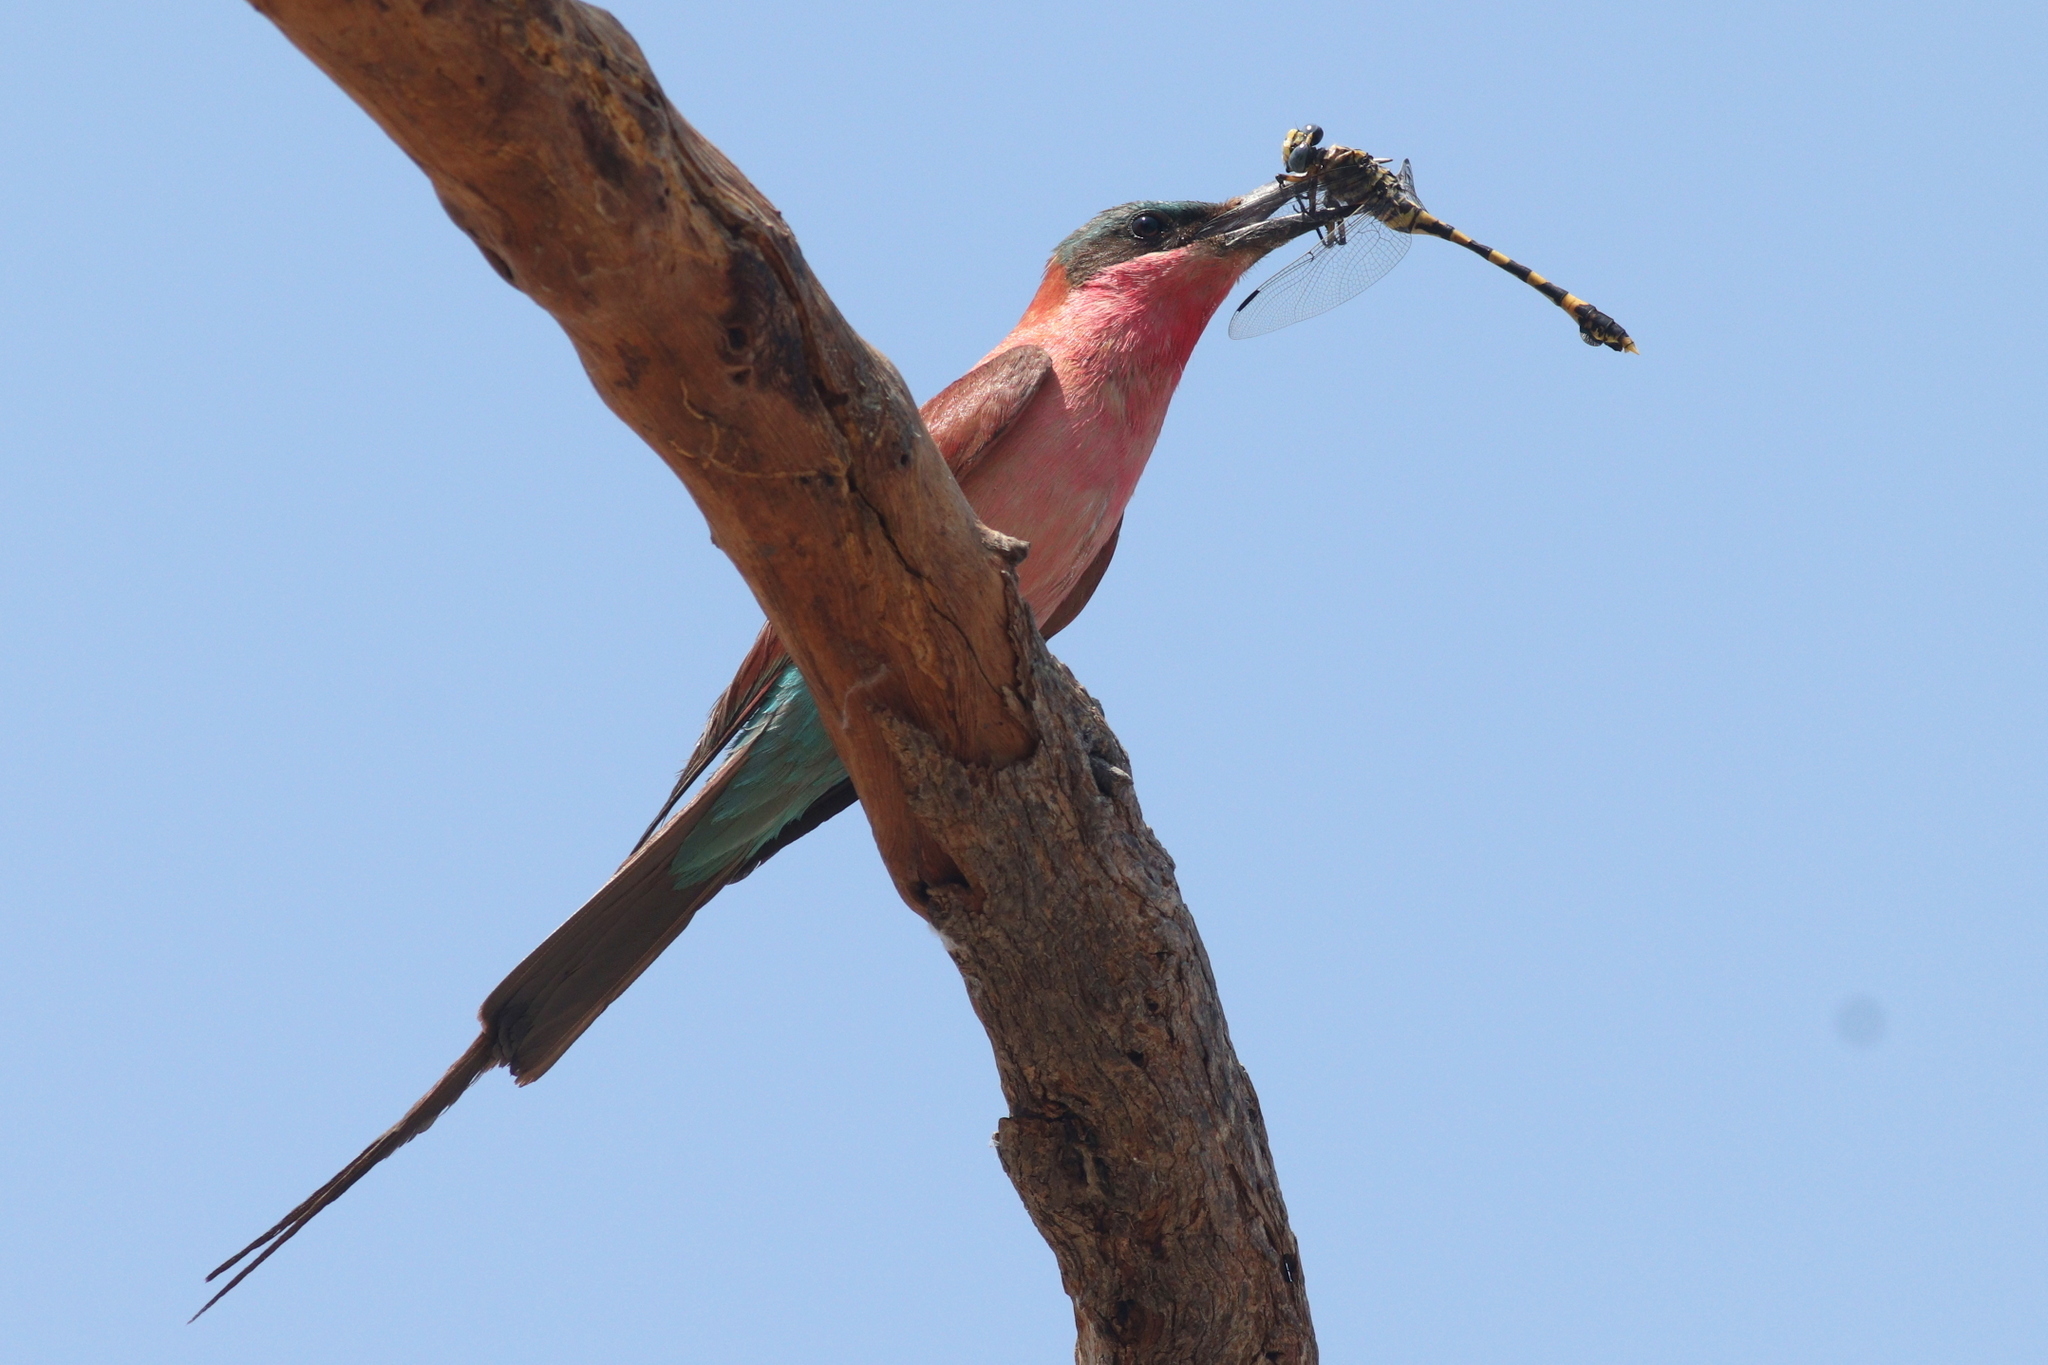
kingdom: Animalia
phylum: Chordata
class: Aves
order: Coraciiformes
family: Meropidae
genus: Merops
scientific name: Merops nubicoides
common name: Southern carmine bee-eater
